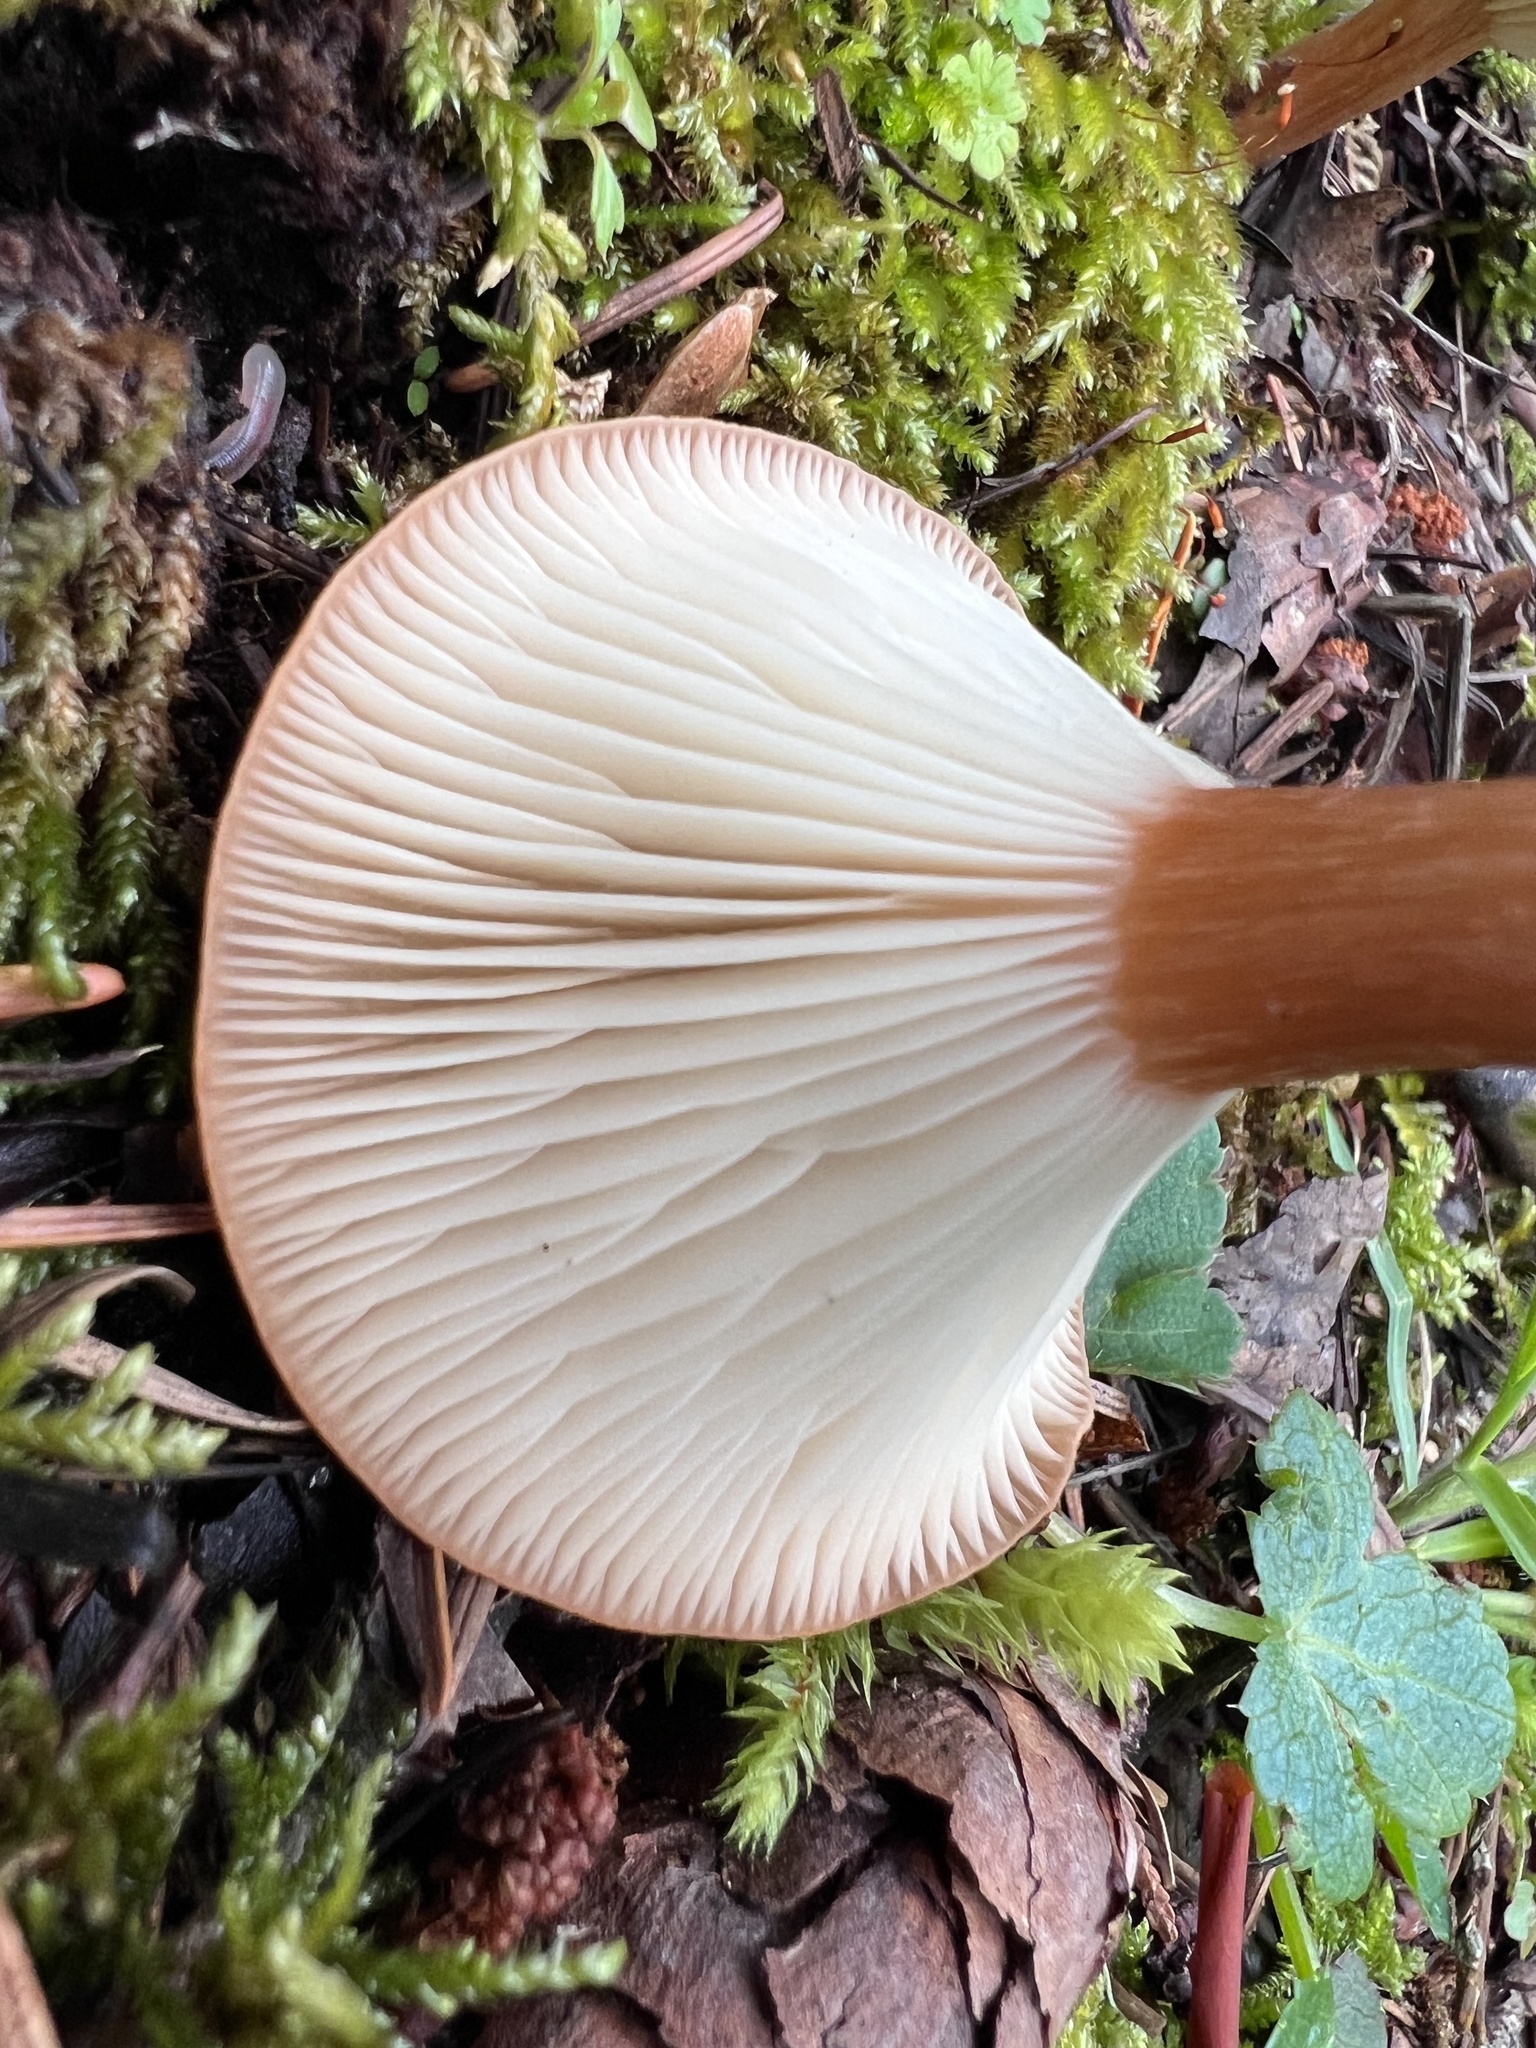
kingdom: Fungi
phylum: Basidiomycota
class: Agaricomycetes
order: Agaricales
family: Tricholomataceae
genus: Infundibulicybe
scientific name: Infundibulicybe squamulosa
